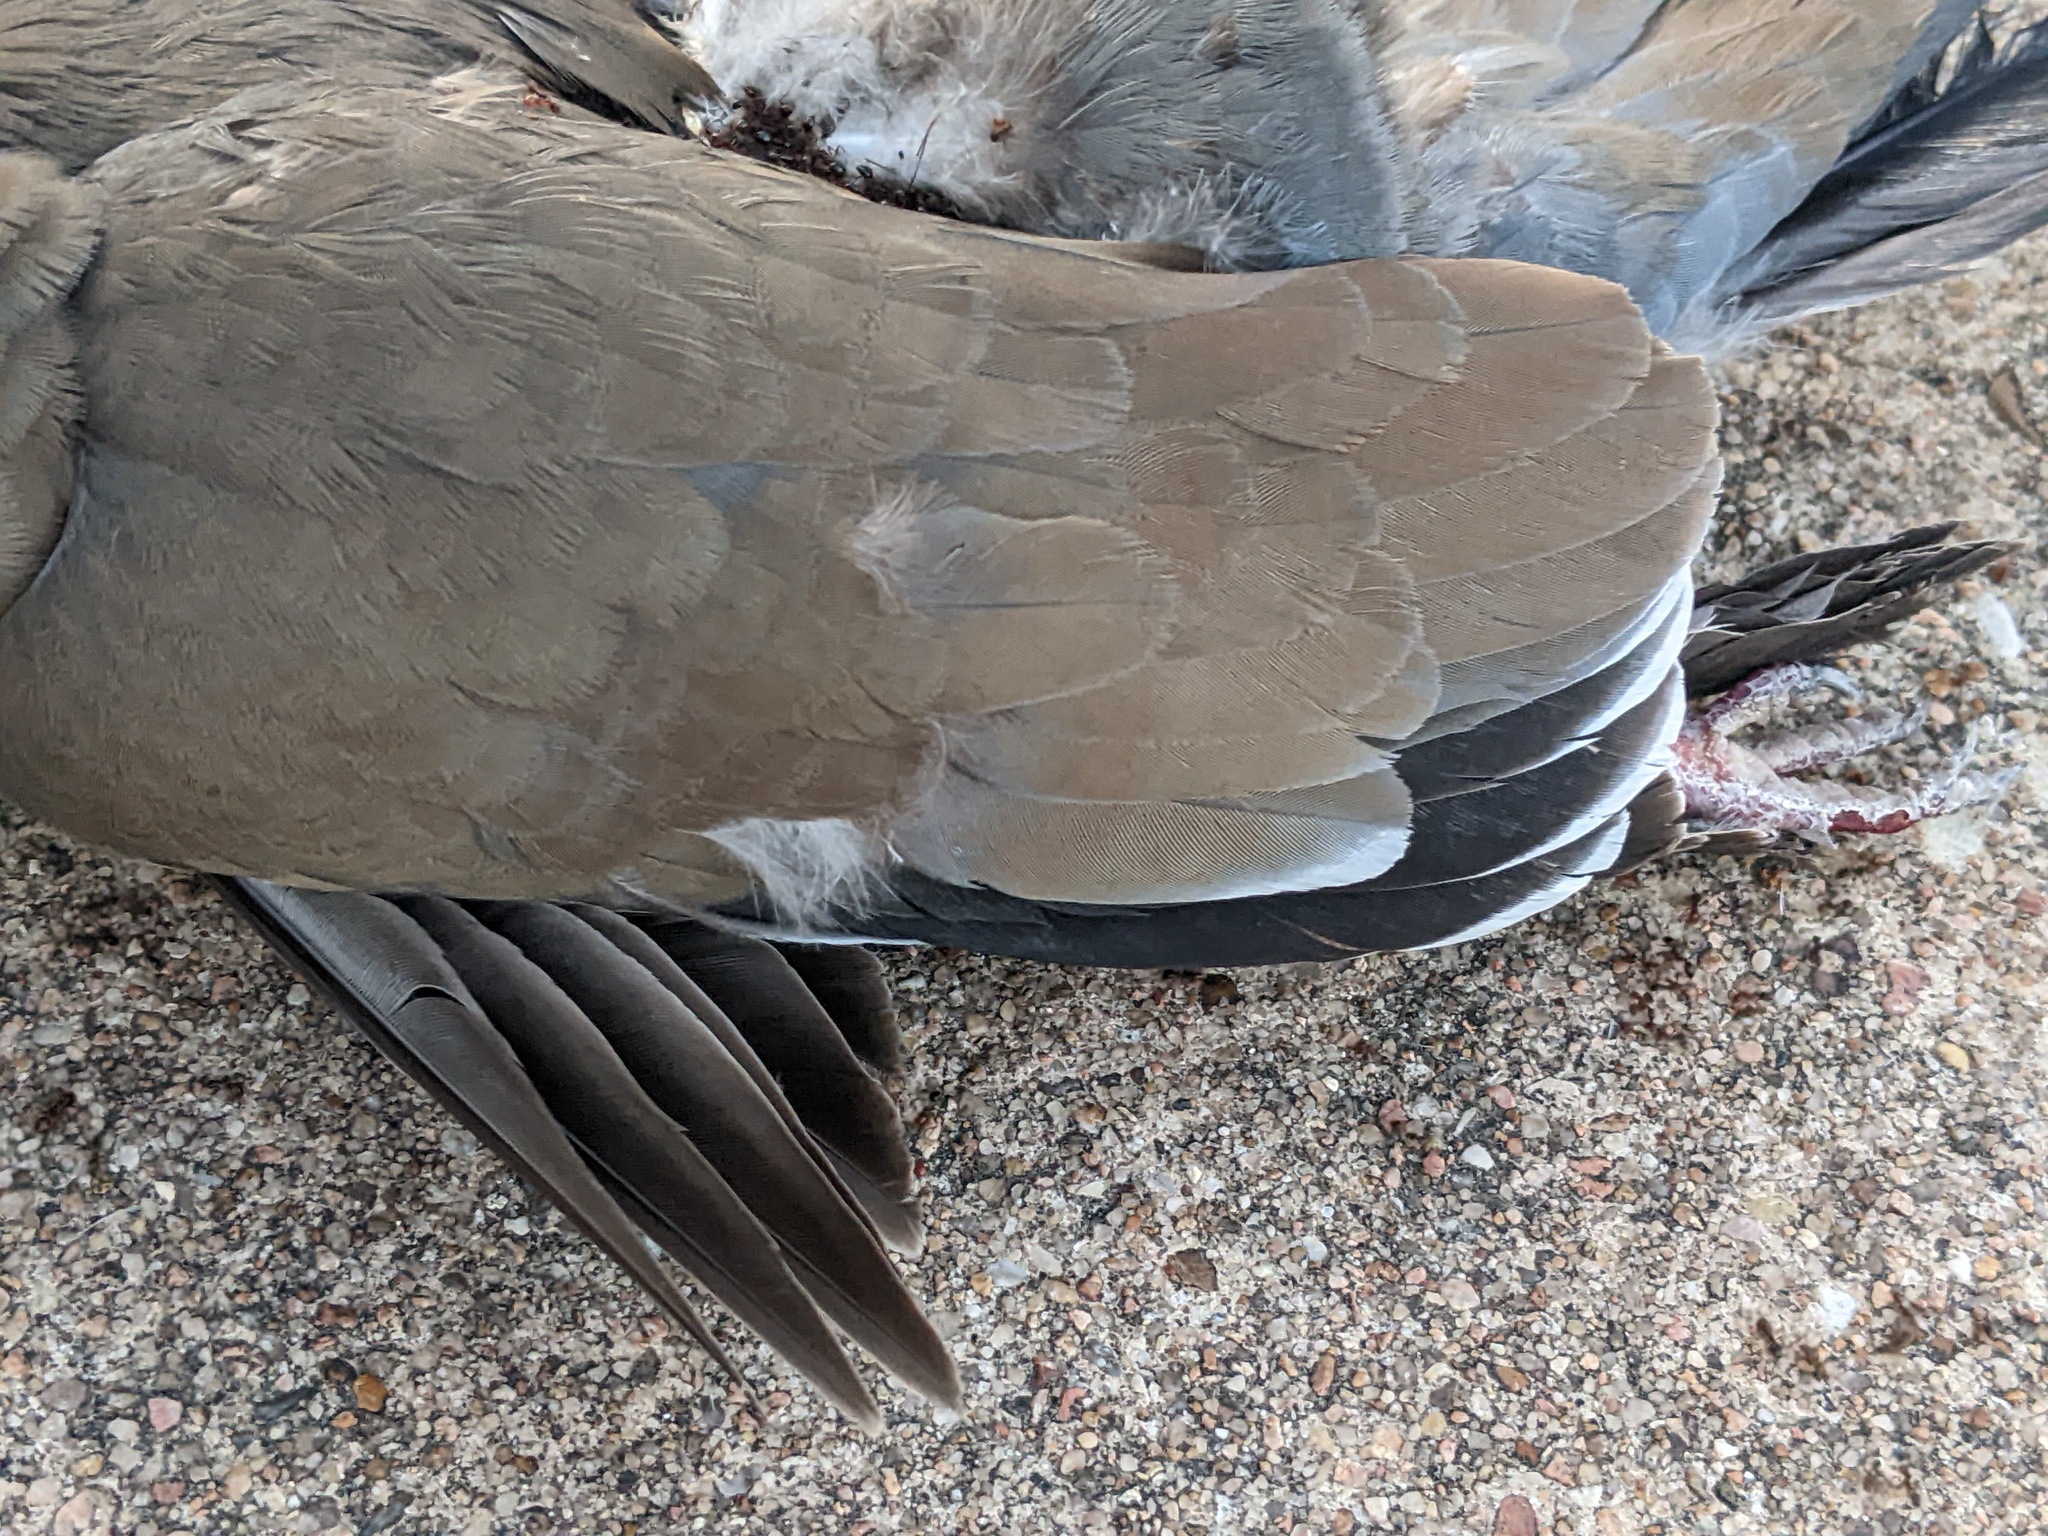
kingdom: Animalia
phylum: Chordata
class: Aves
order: Columbiformes
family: Columbidae
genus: Zenaida
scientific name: Zenaida asiatica
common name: White-winged dove
